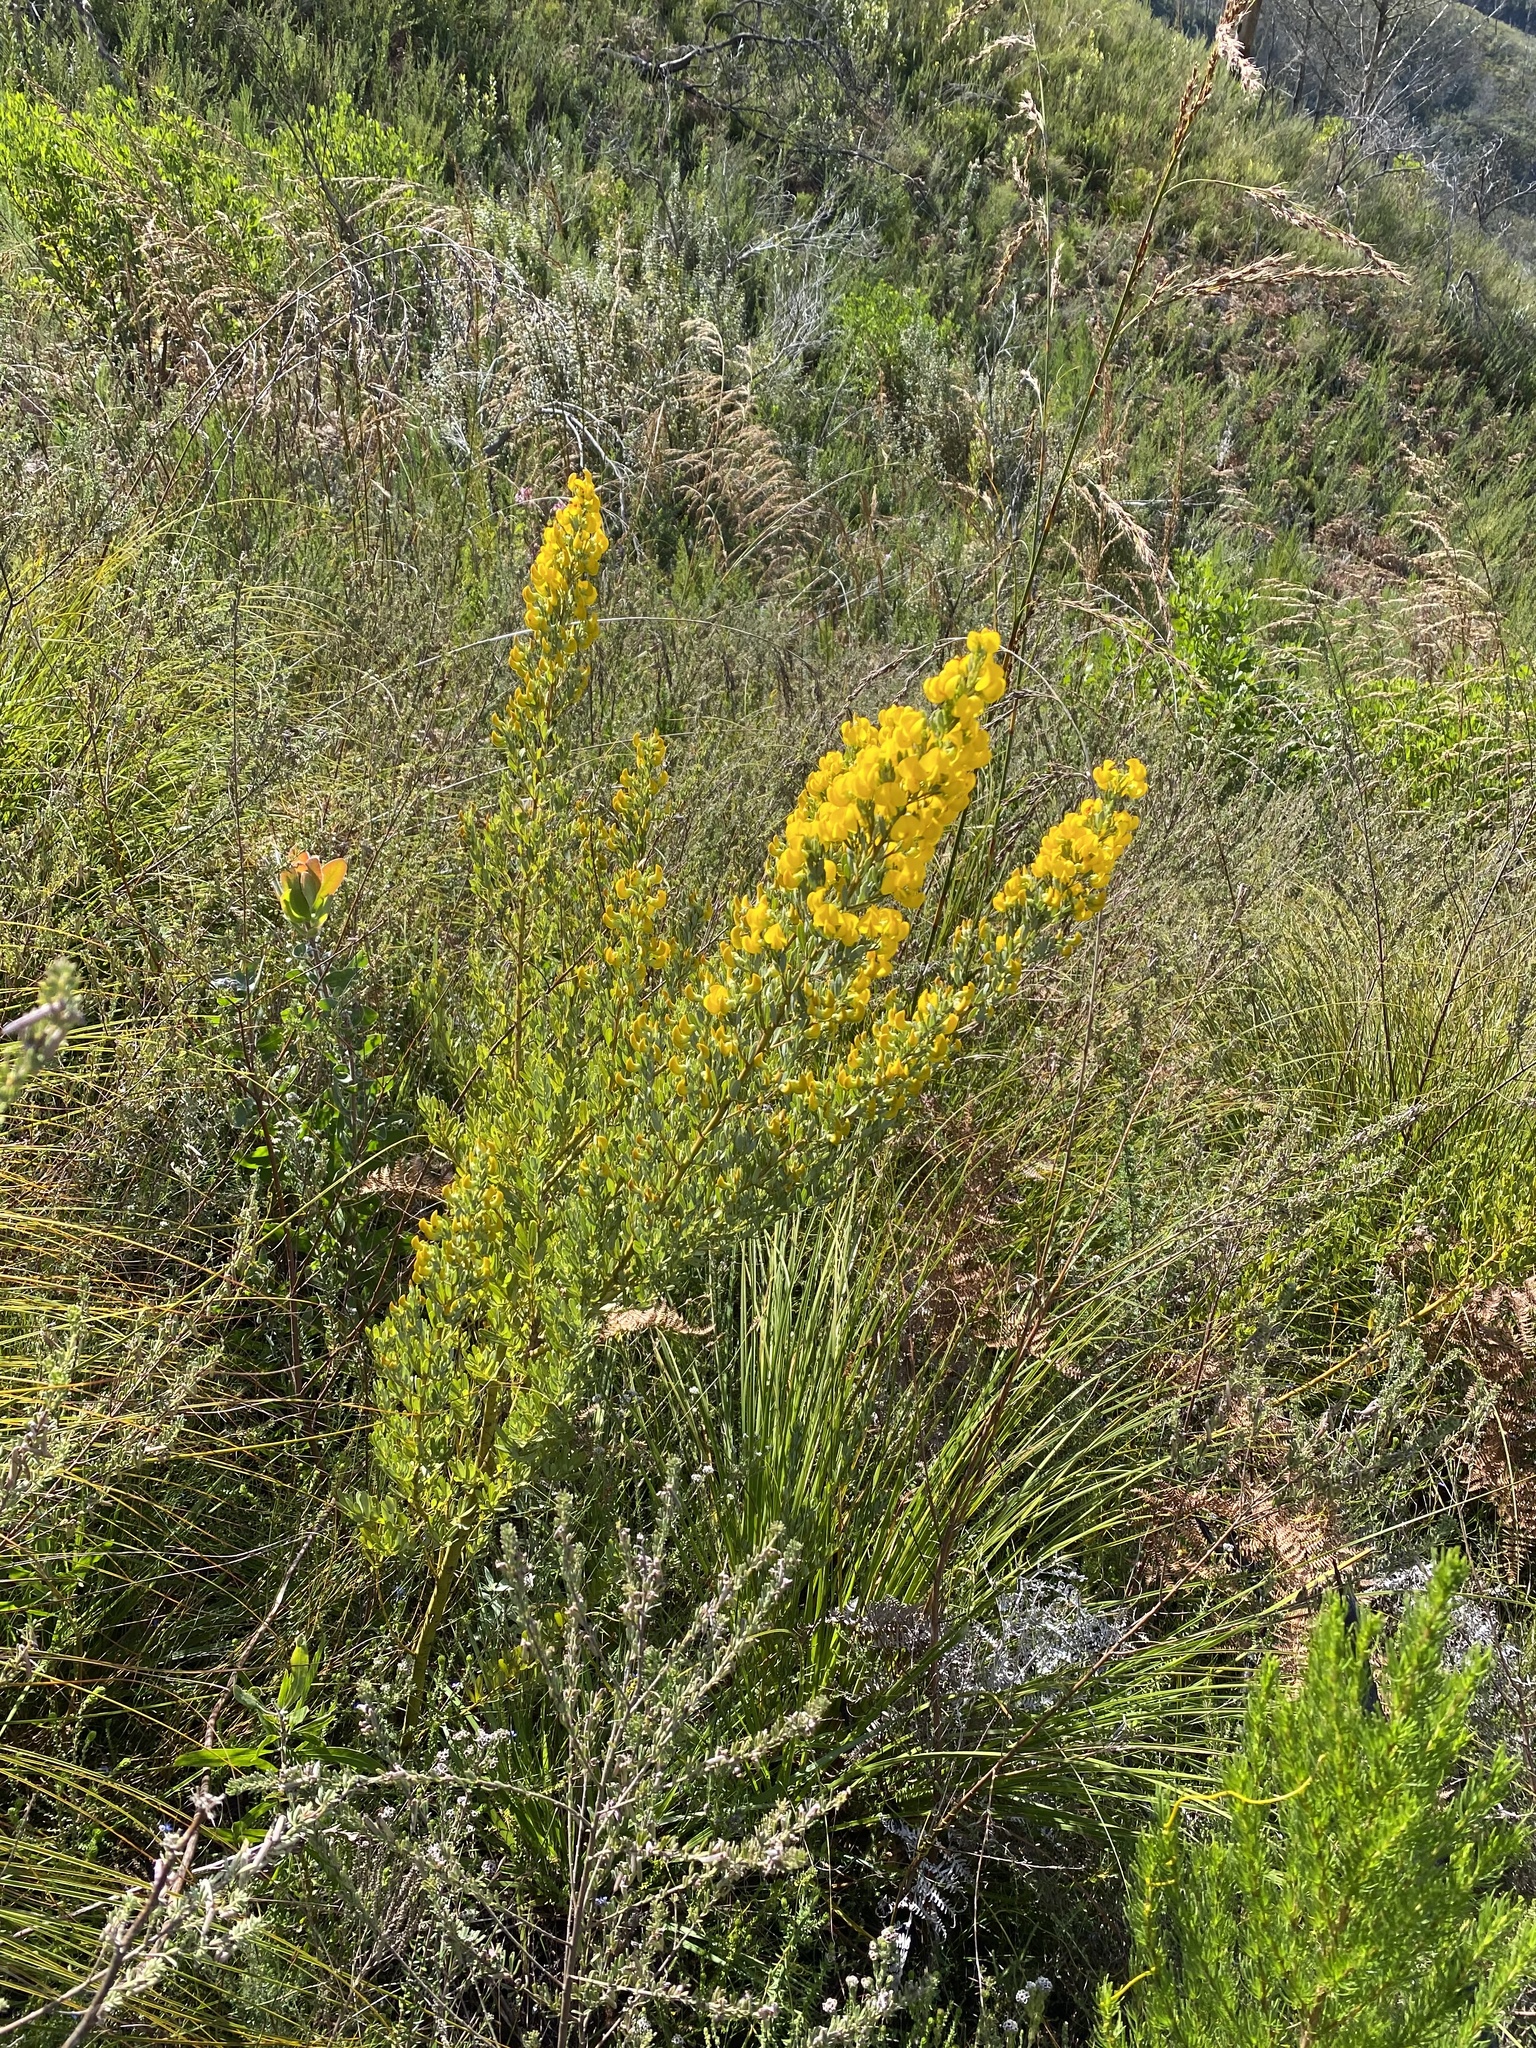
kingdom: Plantae
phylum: Tracheophyta
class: Magnoliopsida
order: Fabales
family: Fabaceae
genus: Cyclopia
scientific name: Cyclopia subternata
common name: Honeybush tea
